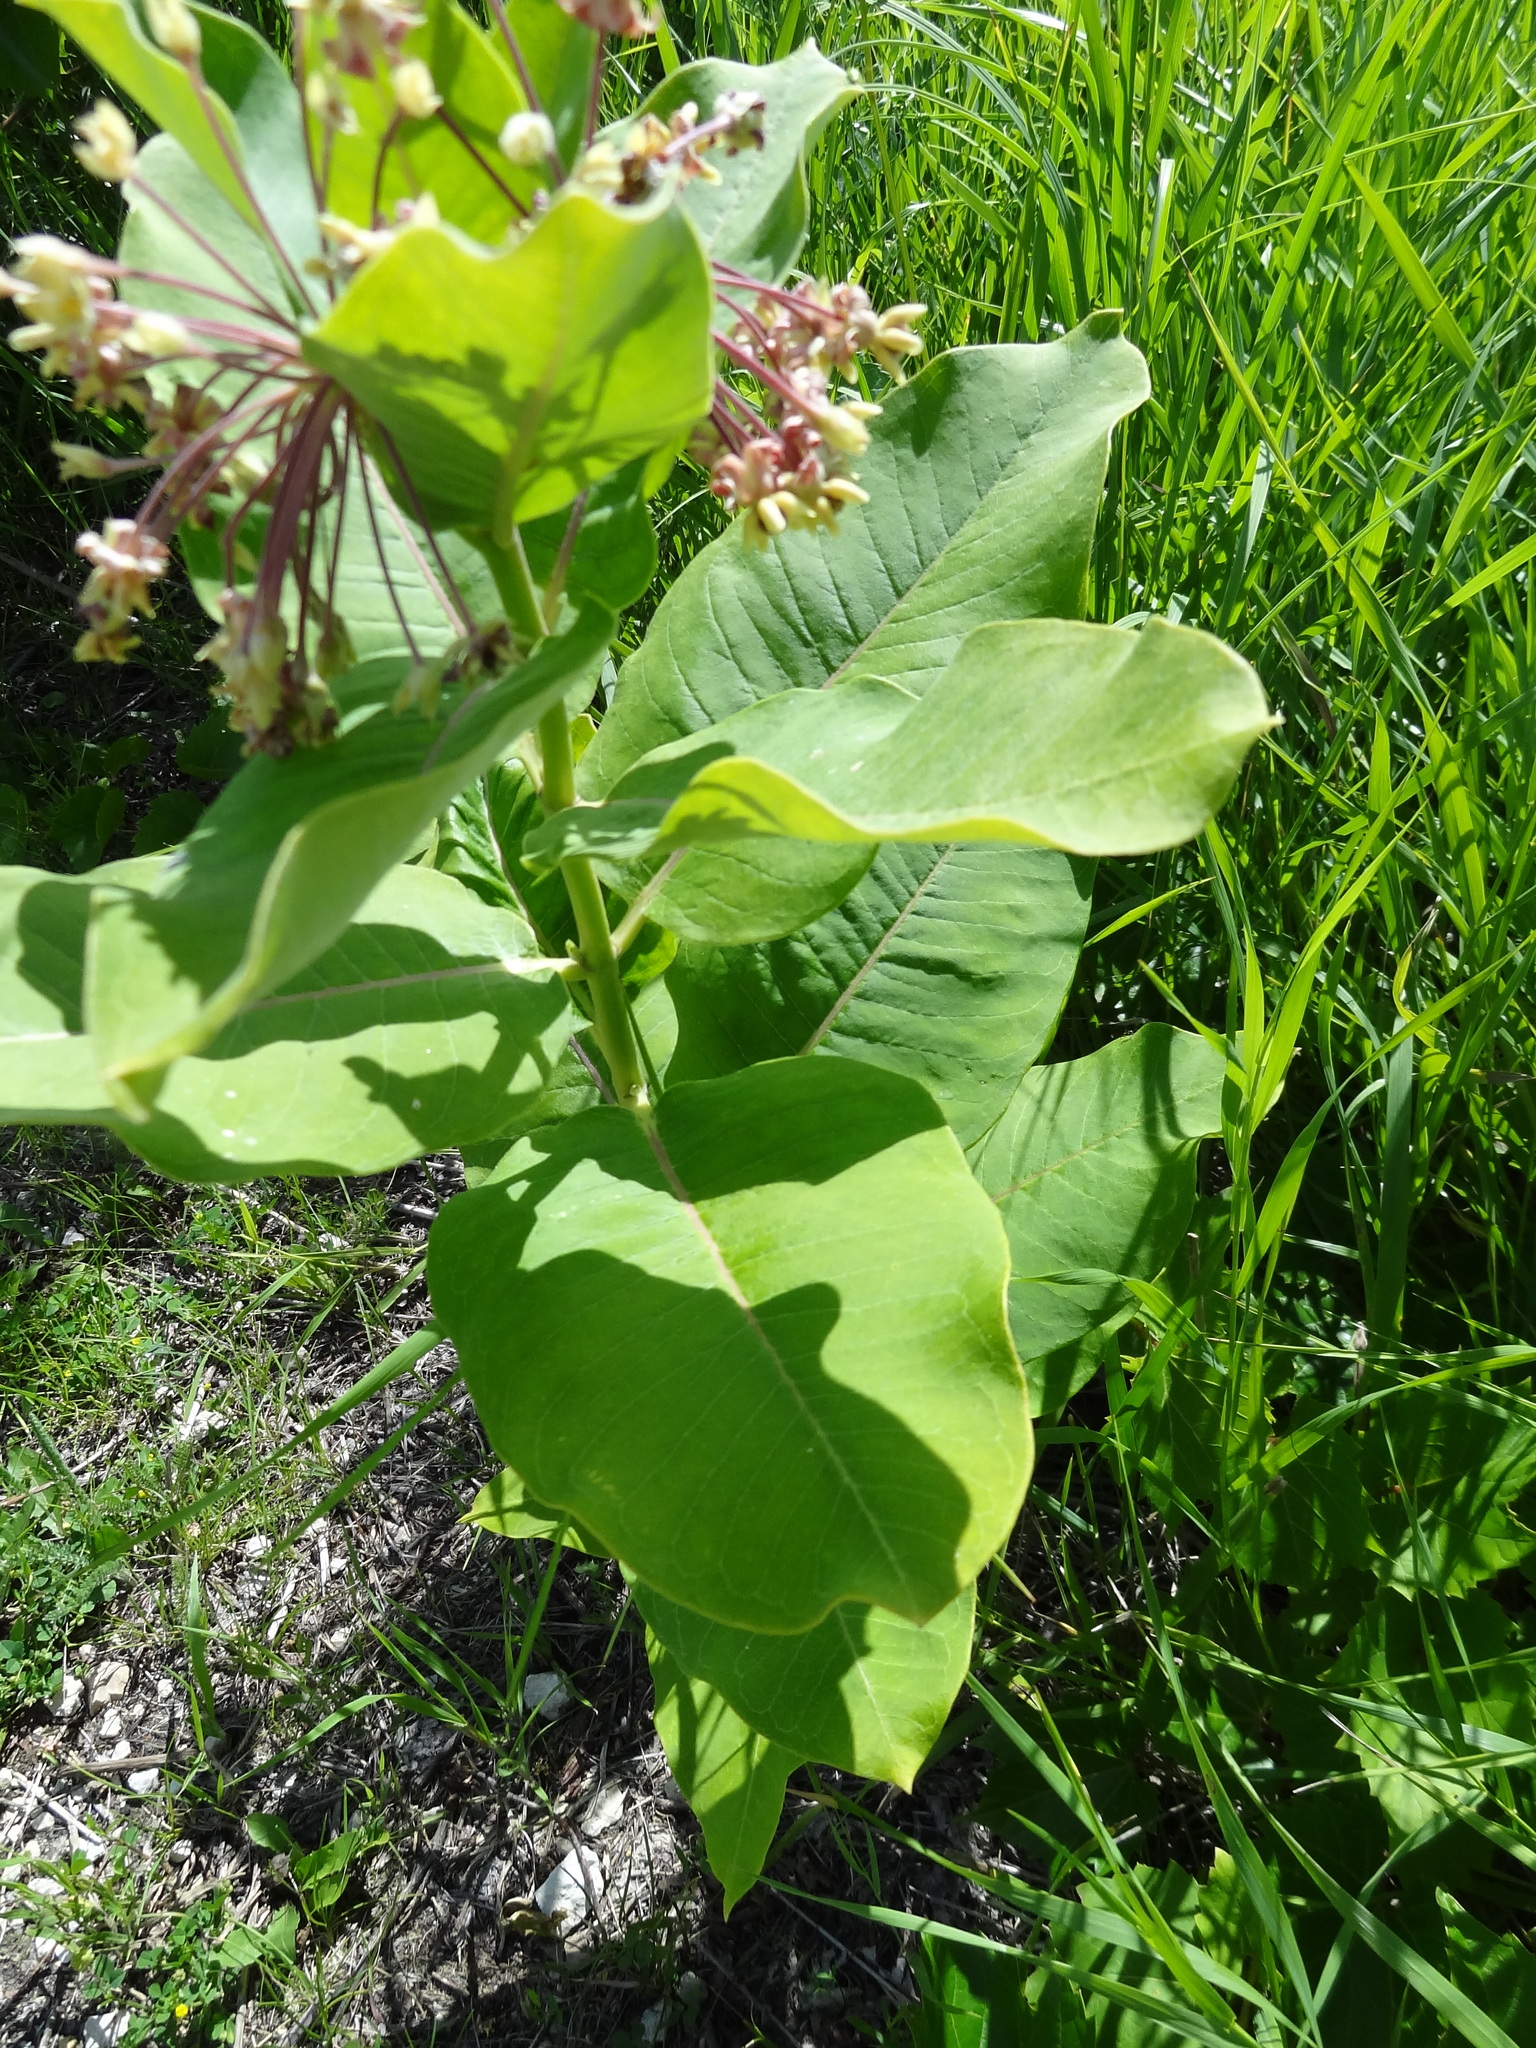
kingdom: Plantae
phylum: Tracheophyta
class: Magnoliopsida
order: Gentianales
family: Apocynaceae
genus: Asclepias
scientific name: Asclepias syriaca
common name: Common milkweed
